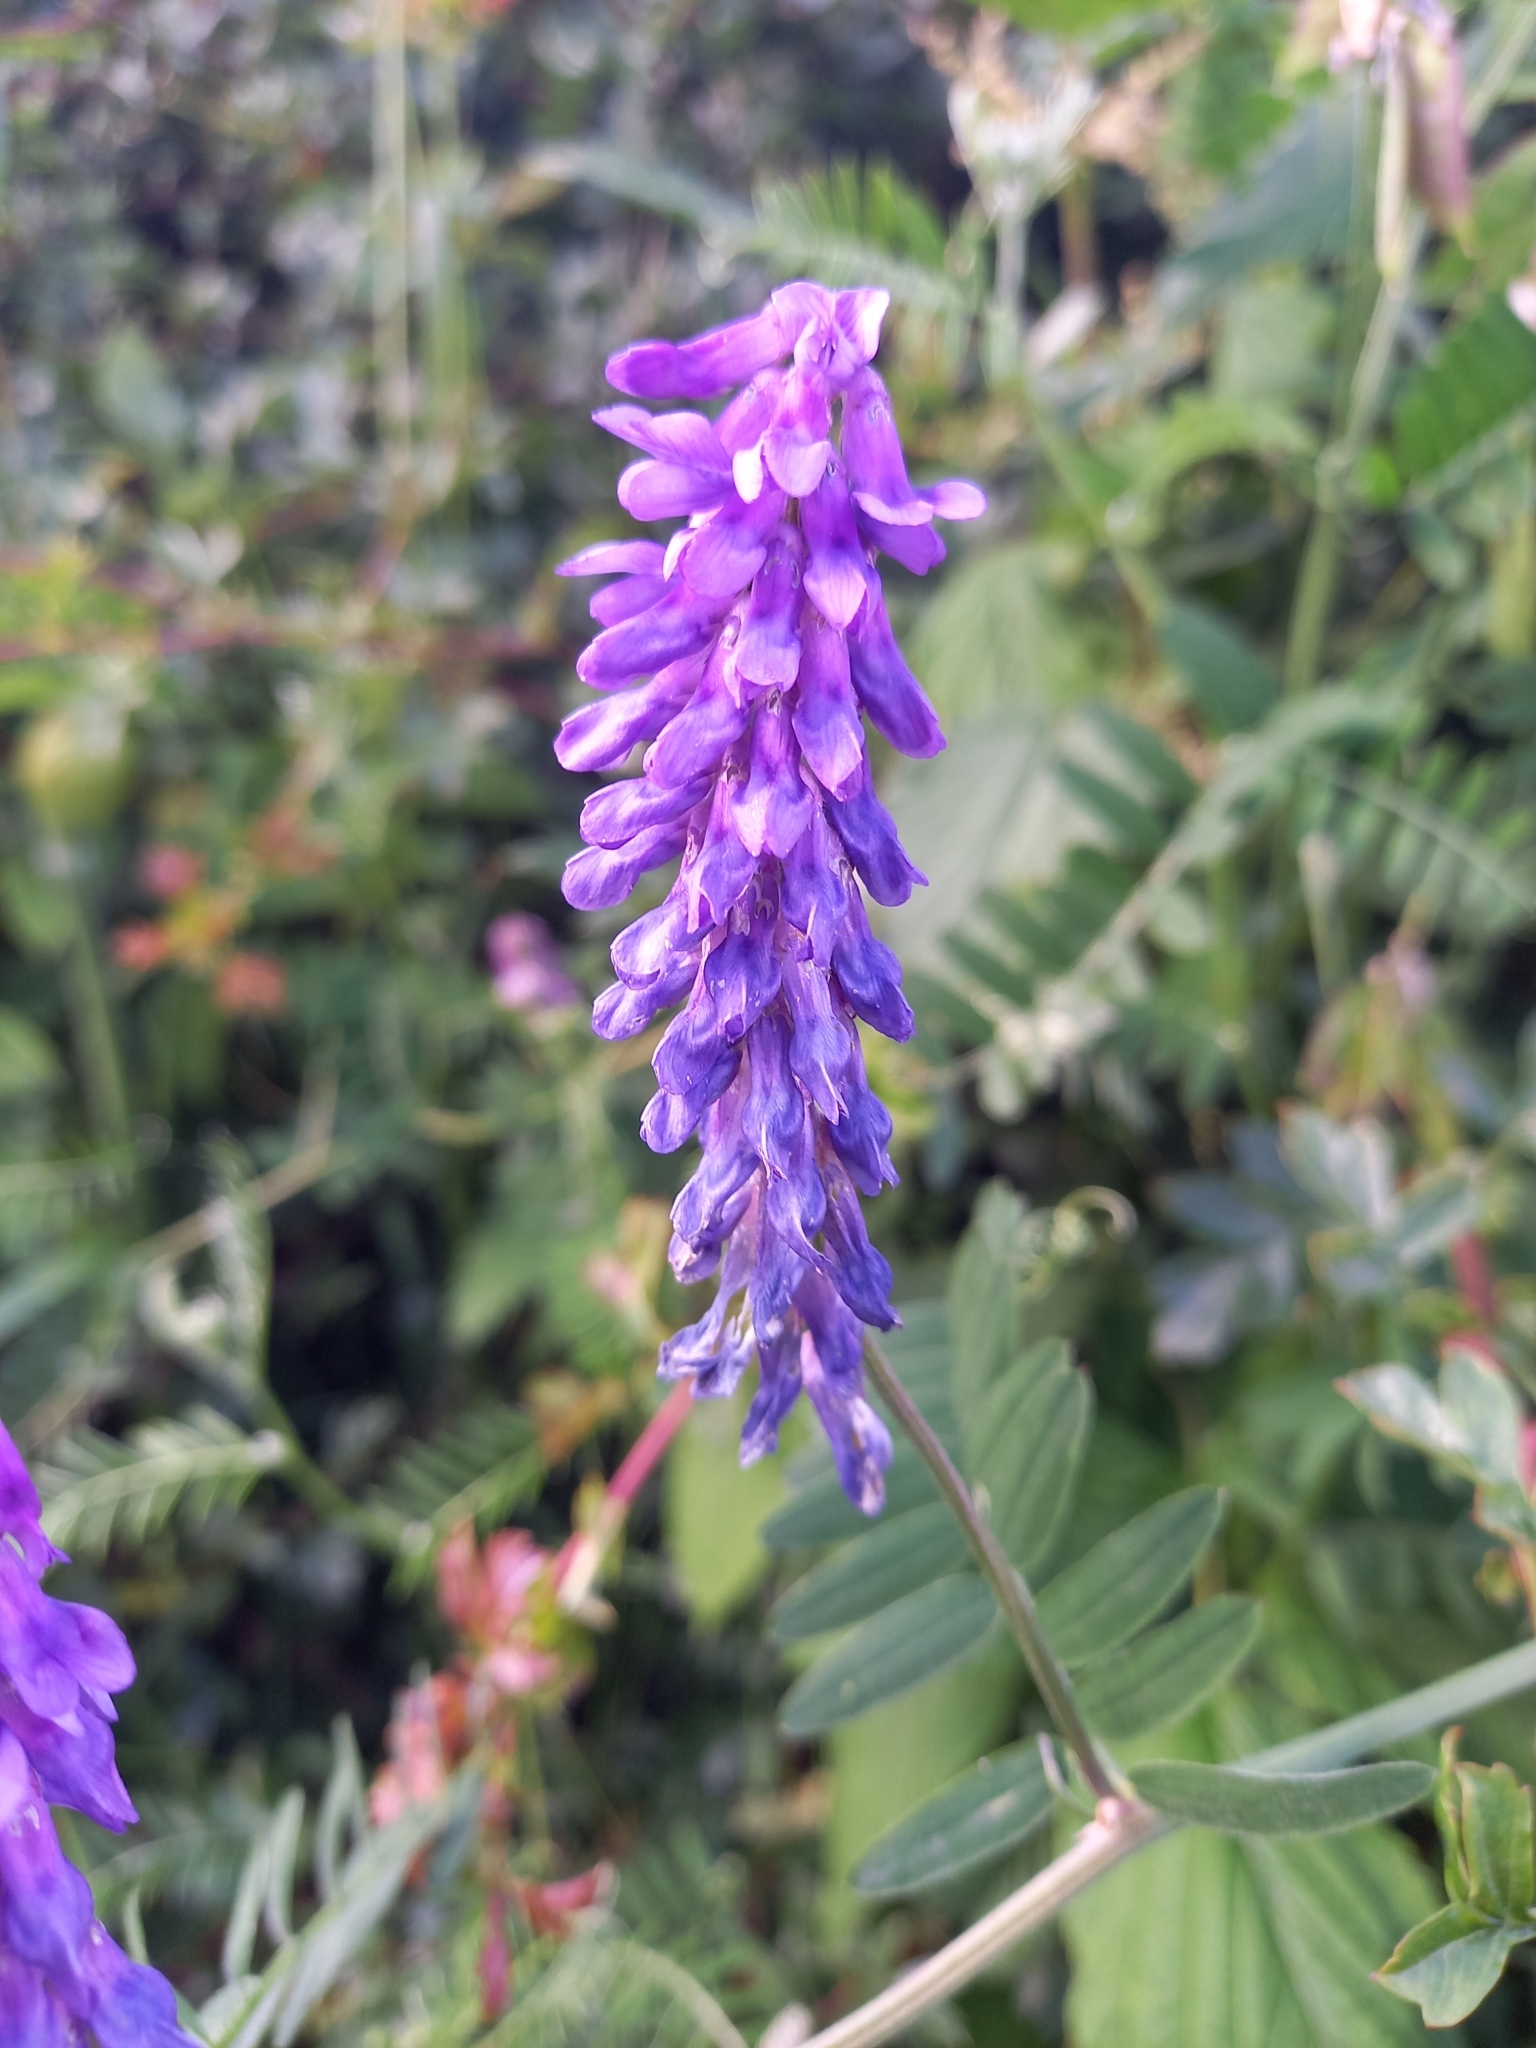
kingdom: Plantae
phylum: Tracheophyta
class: Magnoliopsida
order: Fabales
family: Fabaceae
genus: Vicia
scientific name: Vicia cracca
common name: Bird vetch
